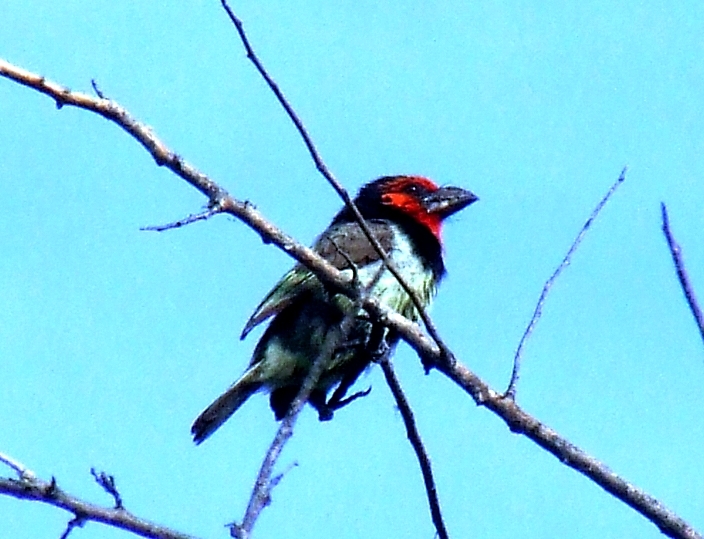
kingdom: Animalia
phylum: Chordata
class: Aves
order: Piciformes
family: Lybiidae
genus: Lybius
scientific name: Lybius torquatus
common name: Black-collared barbet
